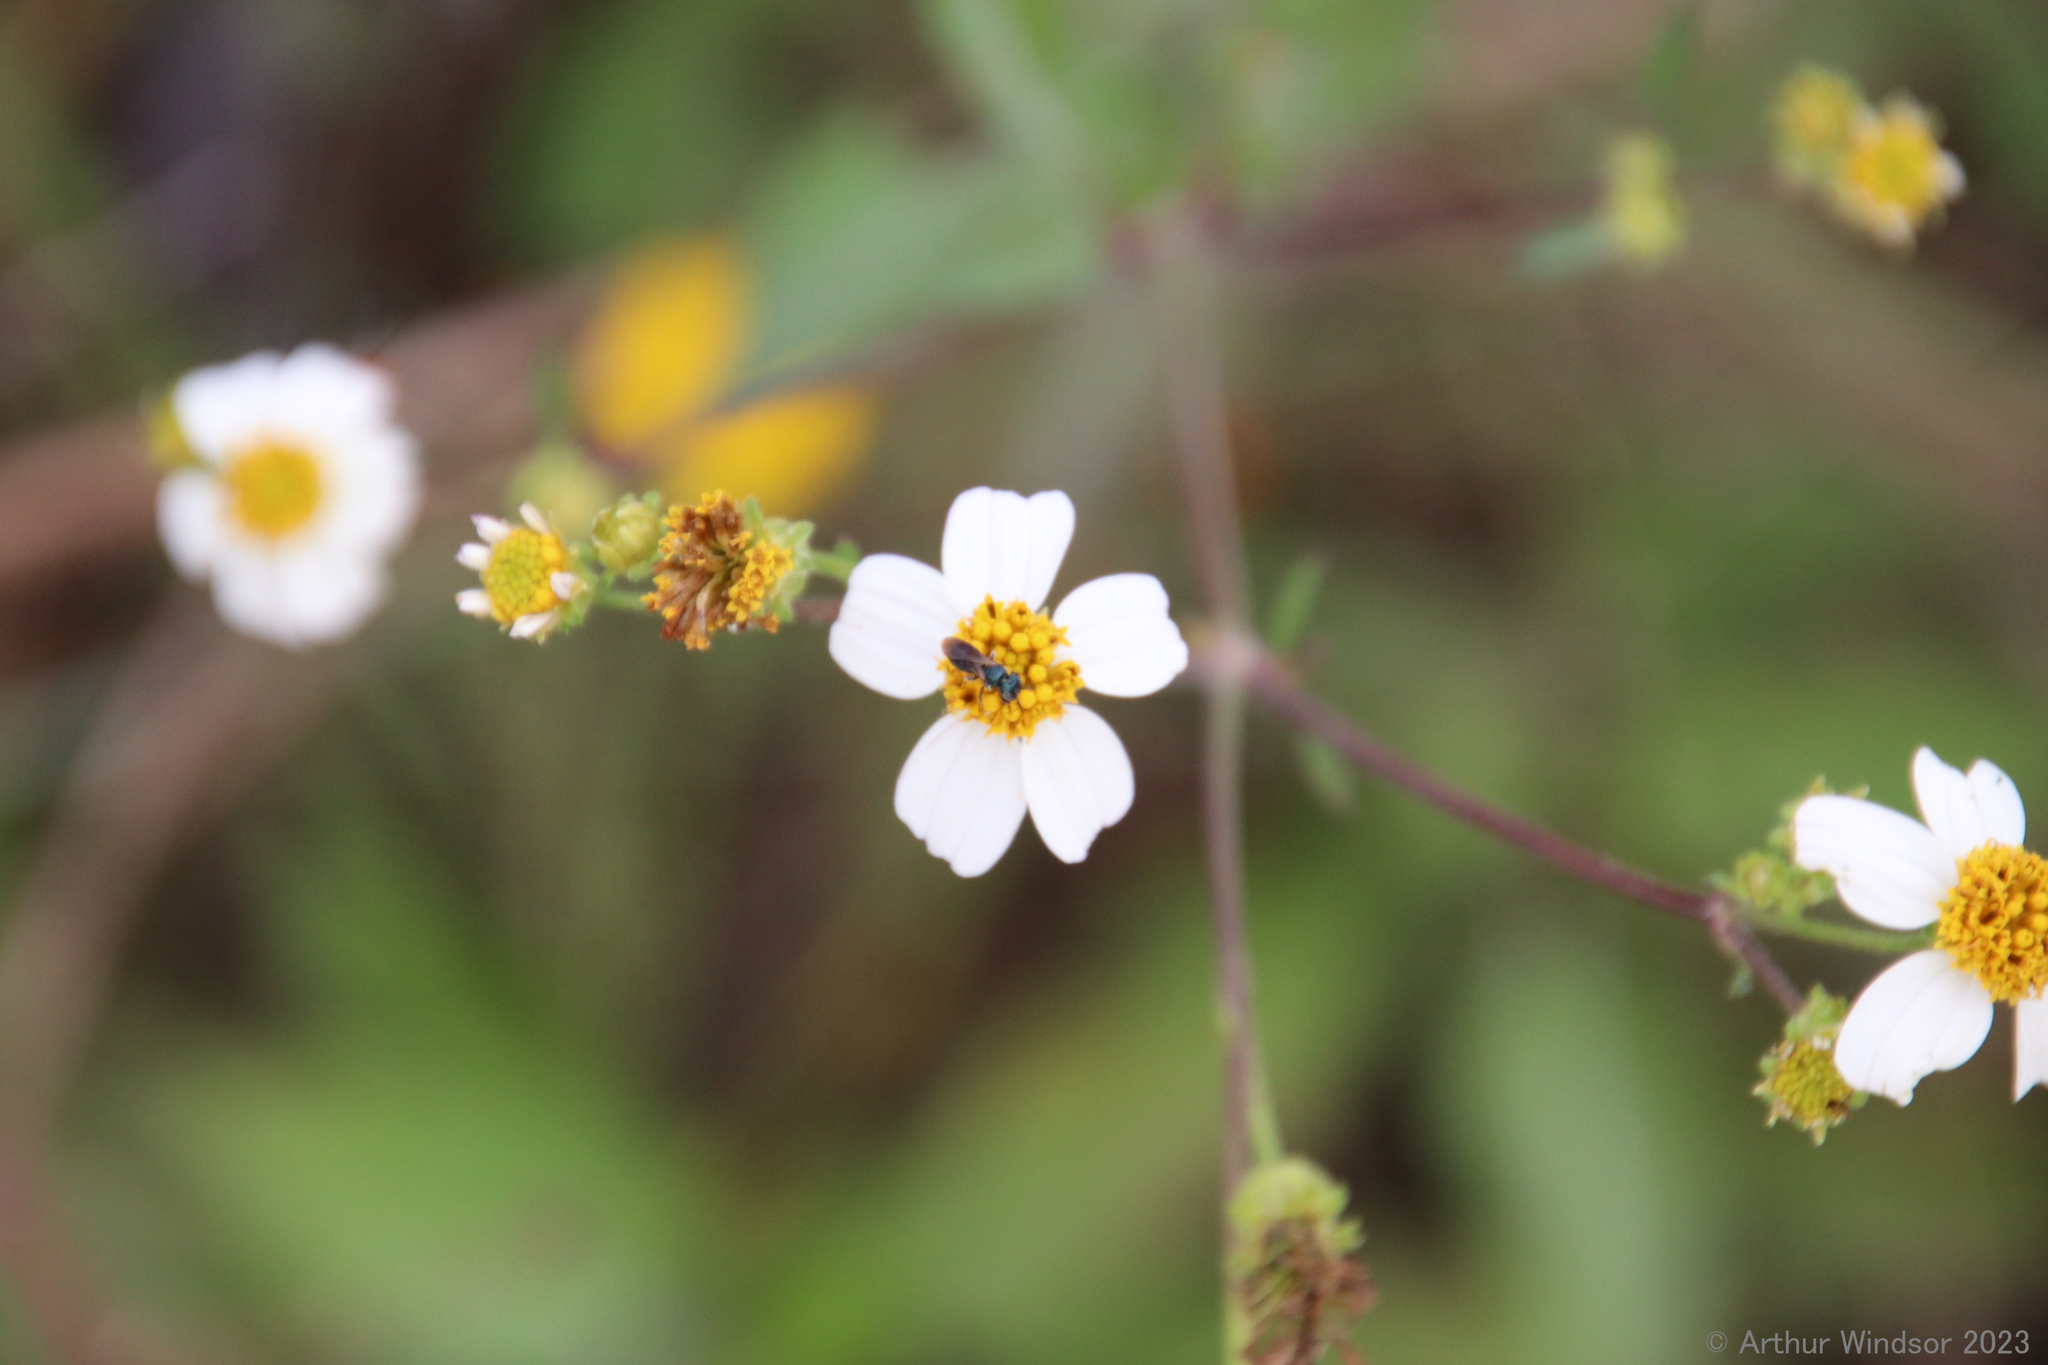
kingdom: Animalia
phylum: Arthropoda
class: Insecta
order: Hymenoptera
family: Apidae
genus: Ceratina
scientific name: Ceratina floridana
